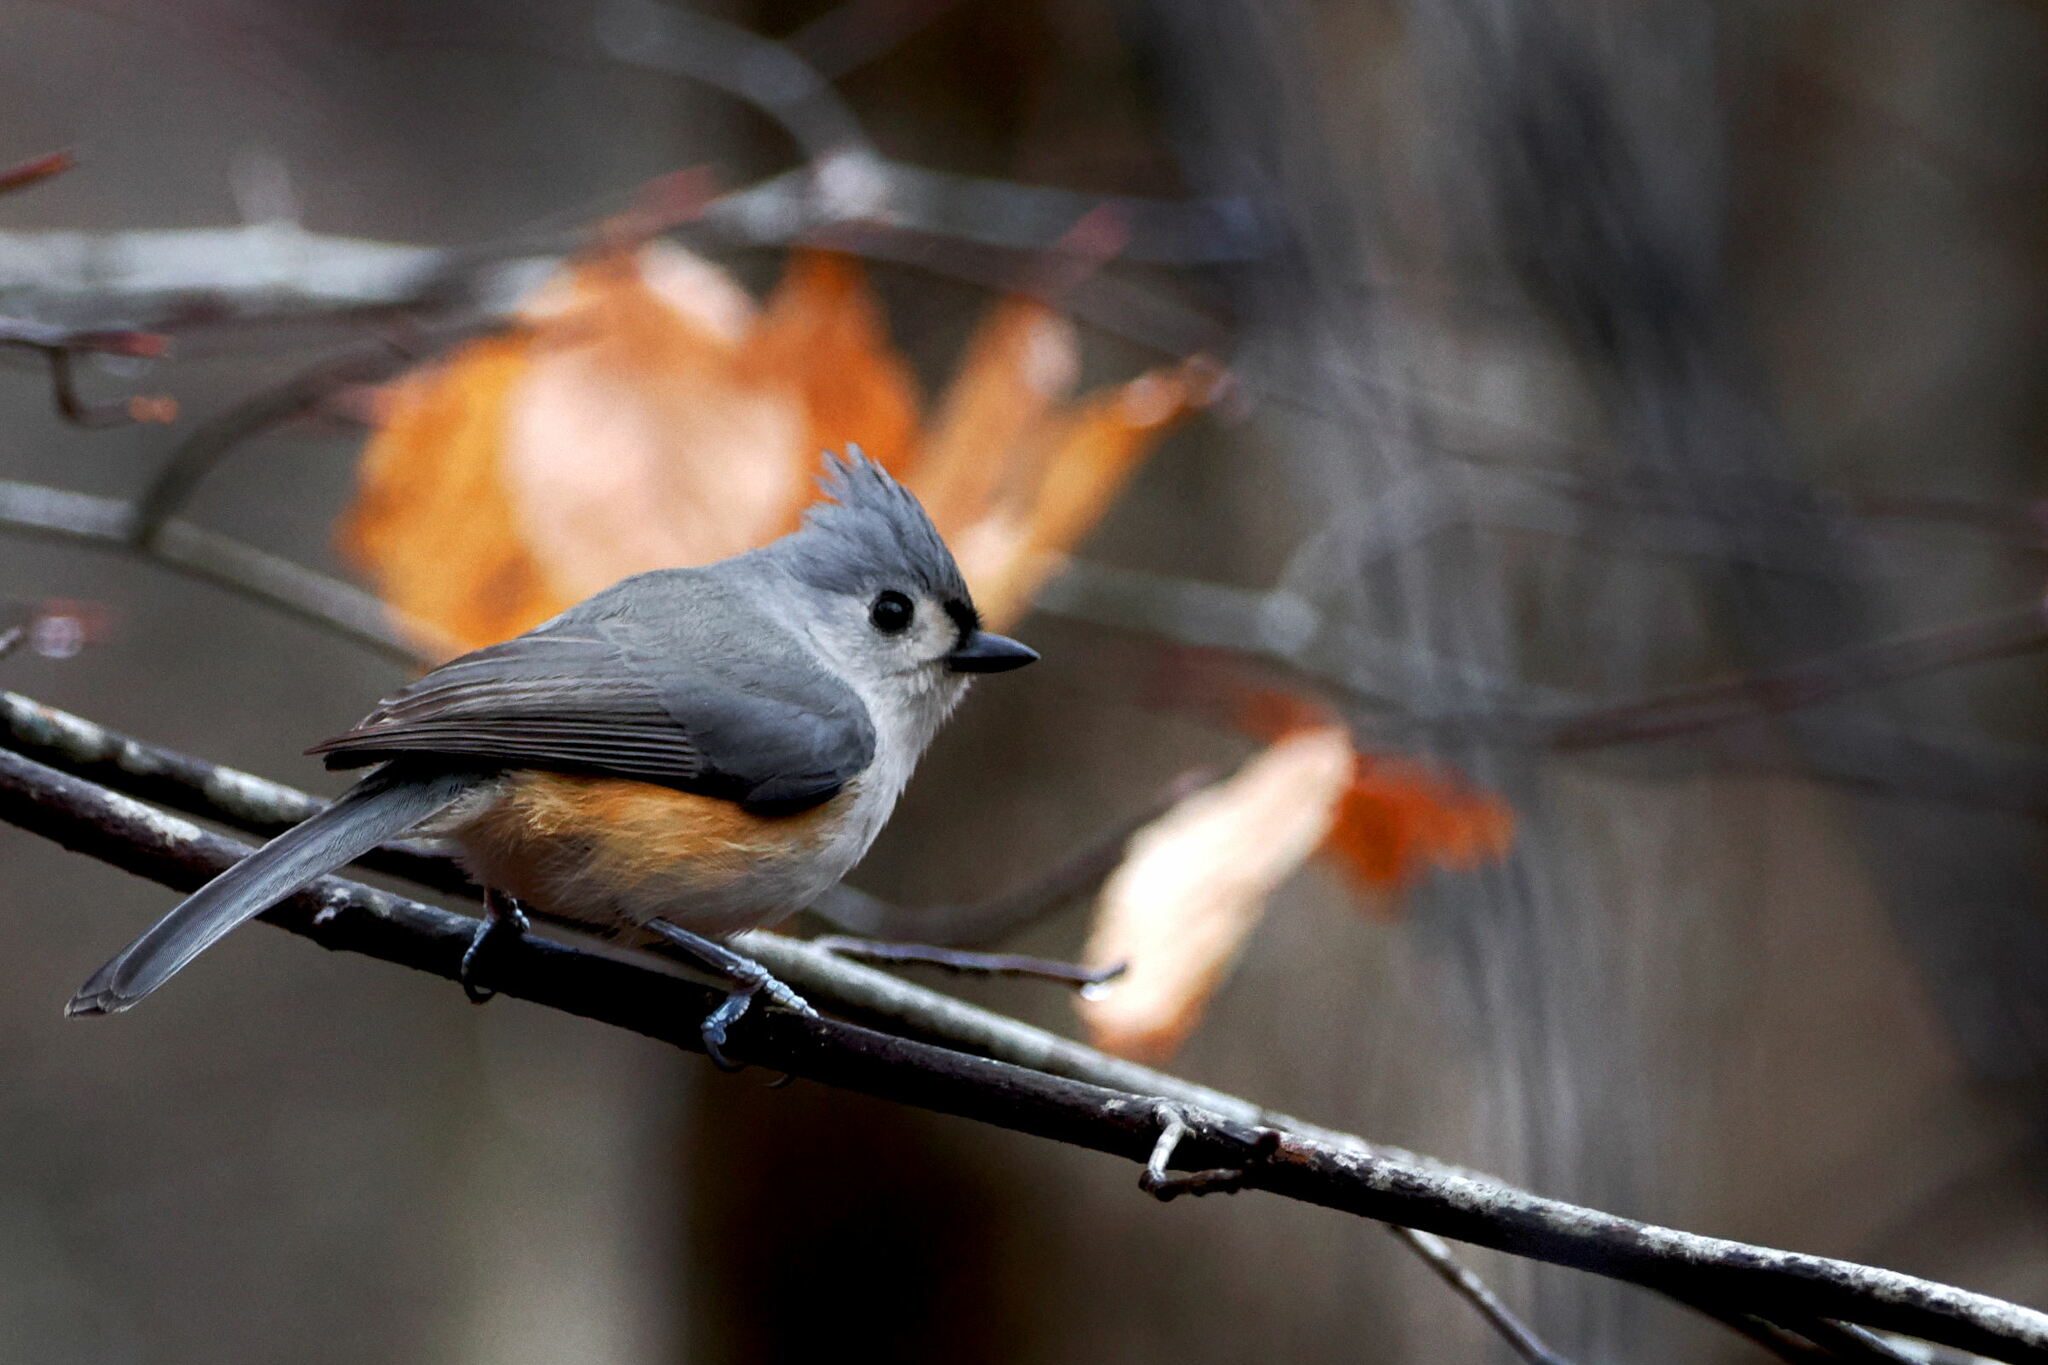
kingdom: Animalia
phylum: Chordata
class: Aves
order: Passeriformes
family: Paridae
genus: Baeolophus
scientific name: Baeolophus bicolor
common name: Tufted titmouse
